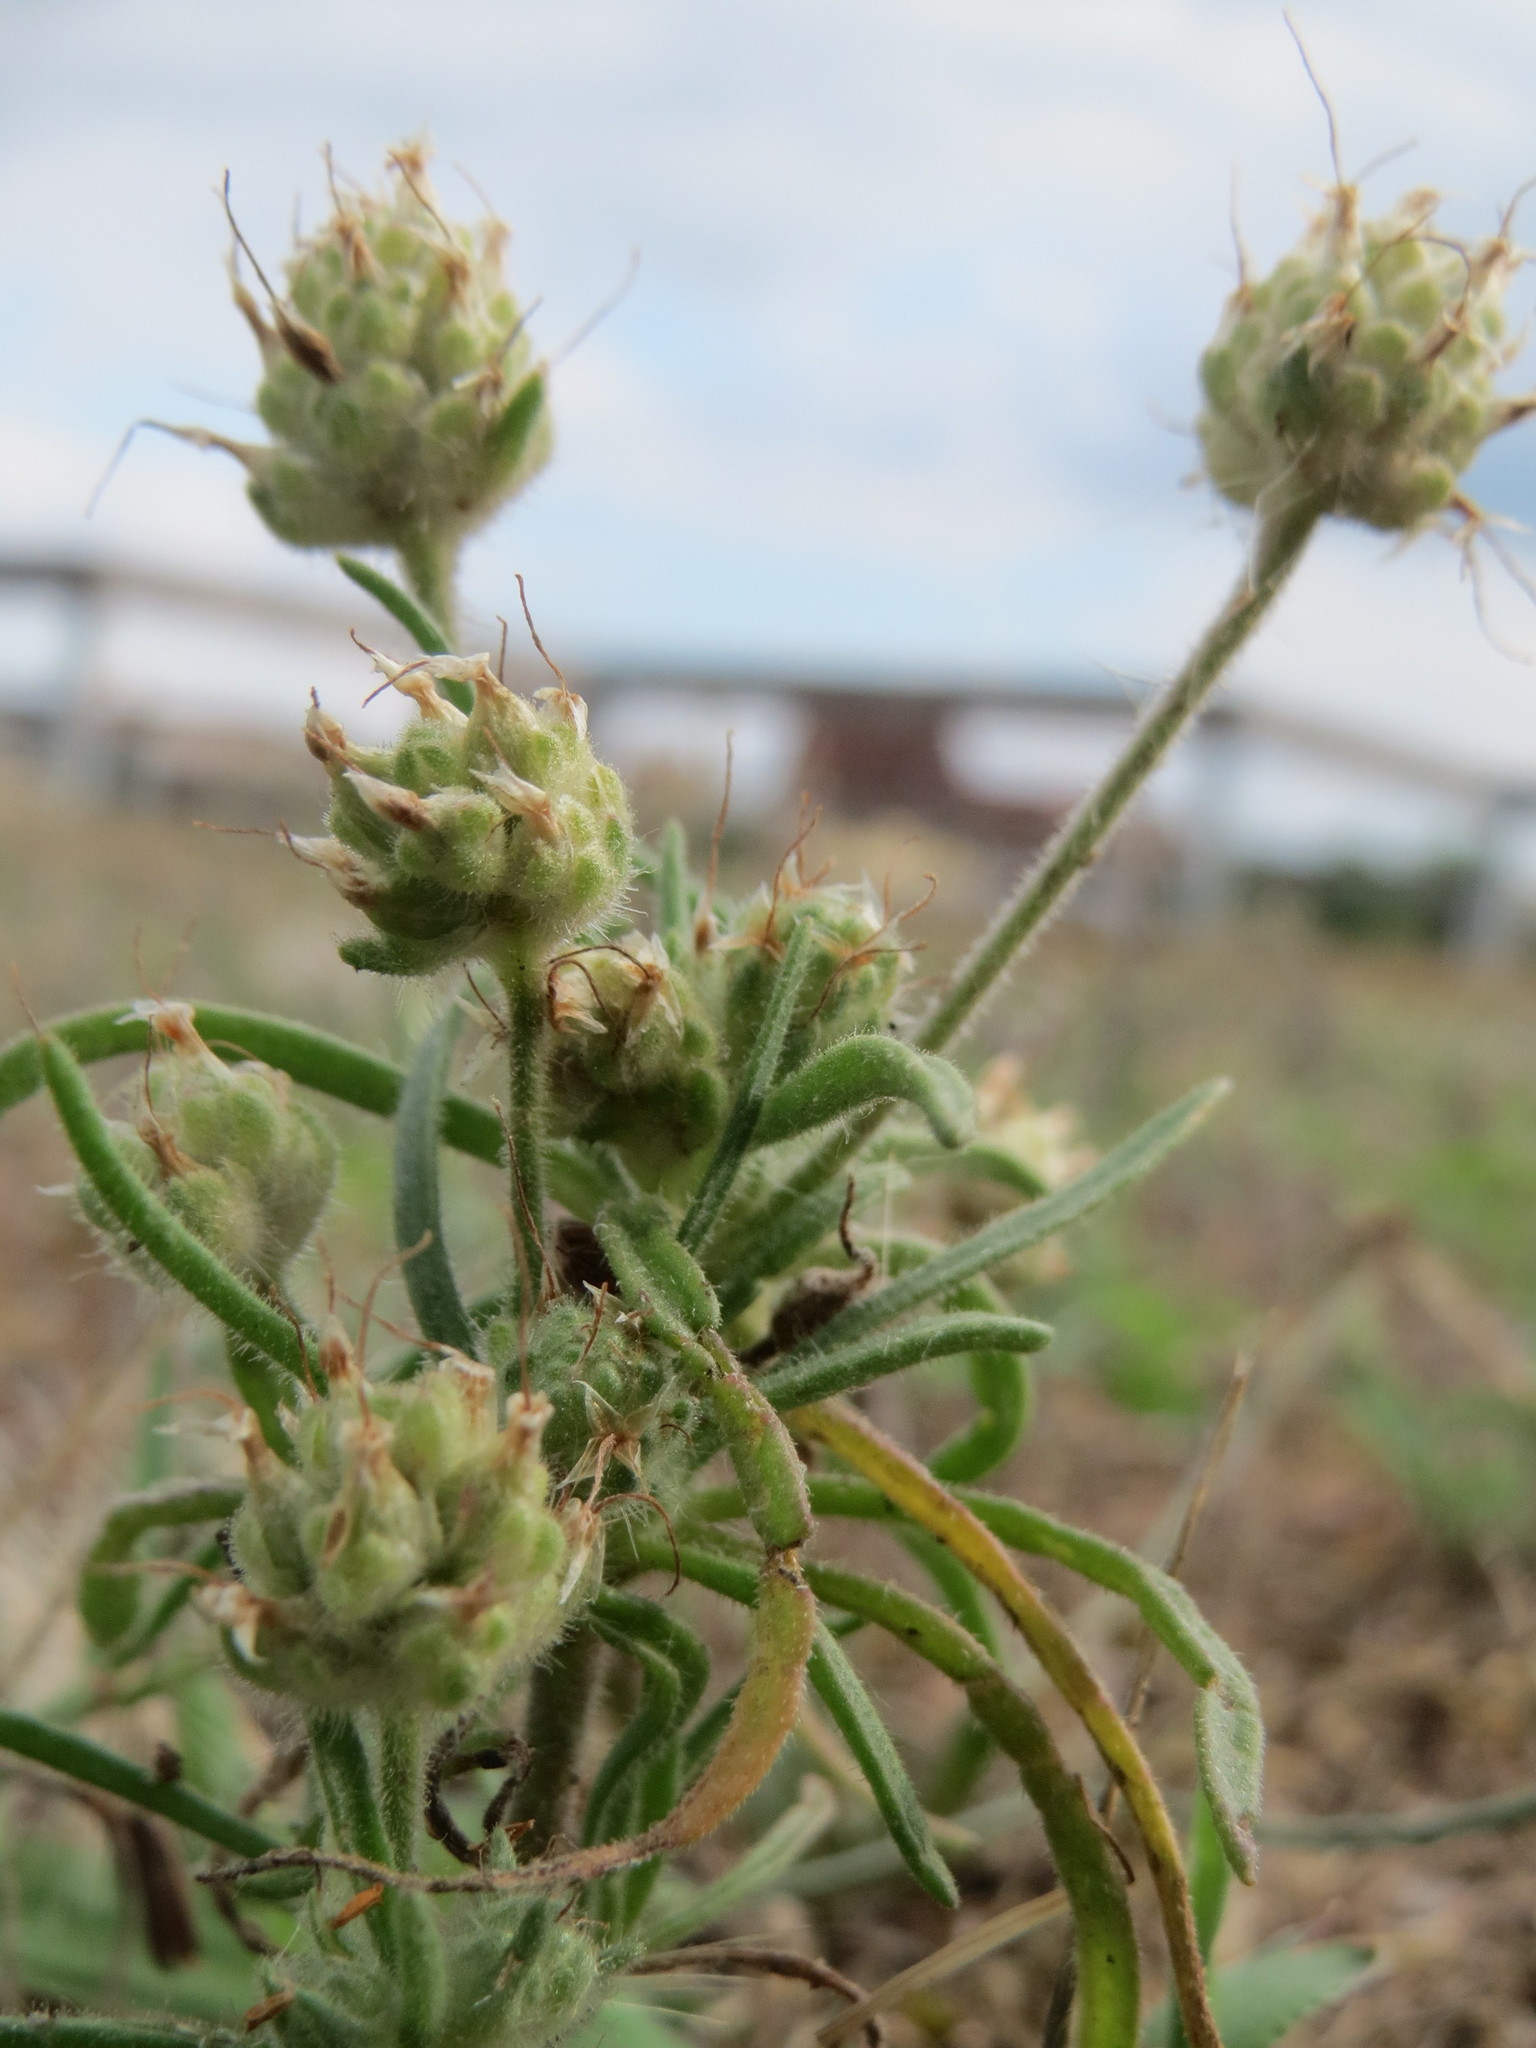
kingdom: Plantae
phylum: Tracheophyta
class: Magnoliopsida
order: Lamiales
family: Plantaginaceae
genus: Plantago
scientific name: Plantago arenaria
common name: Branched plantain
